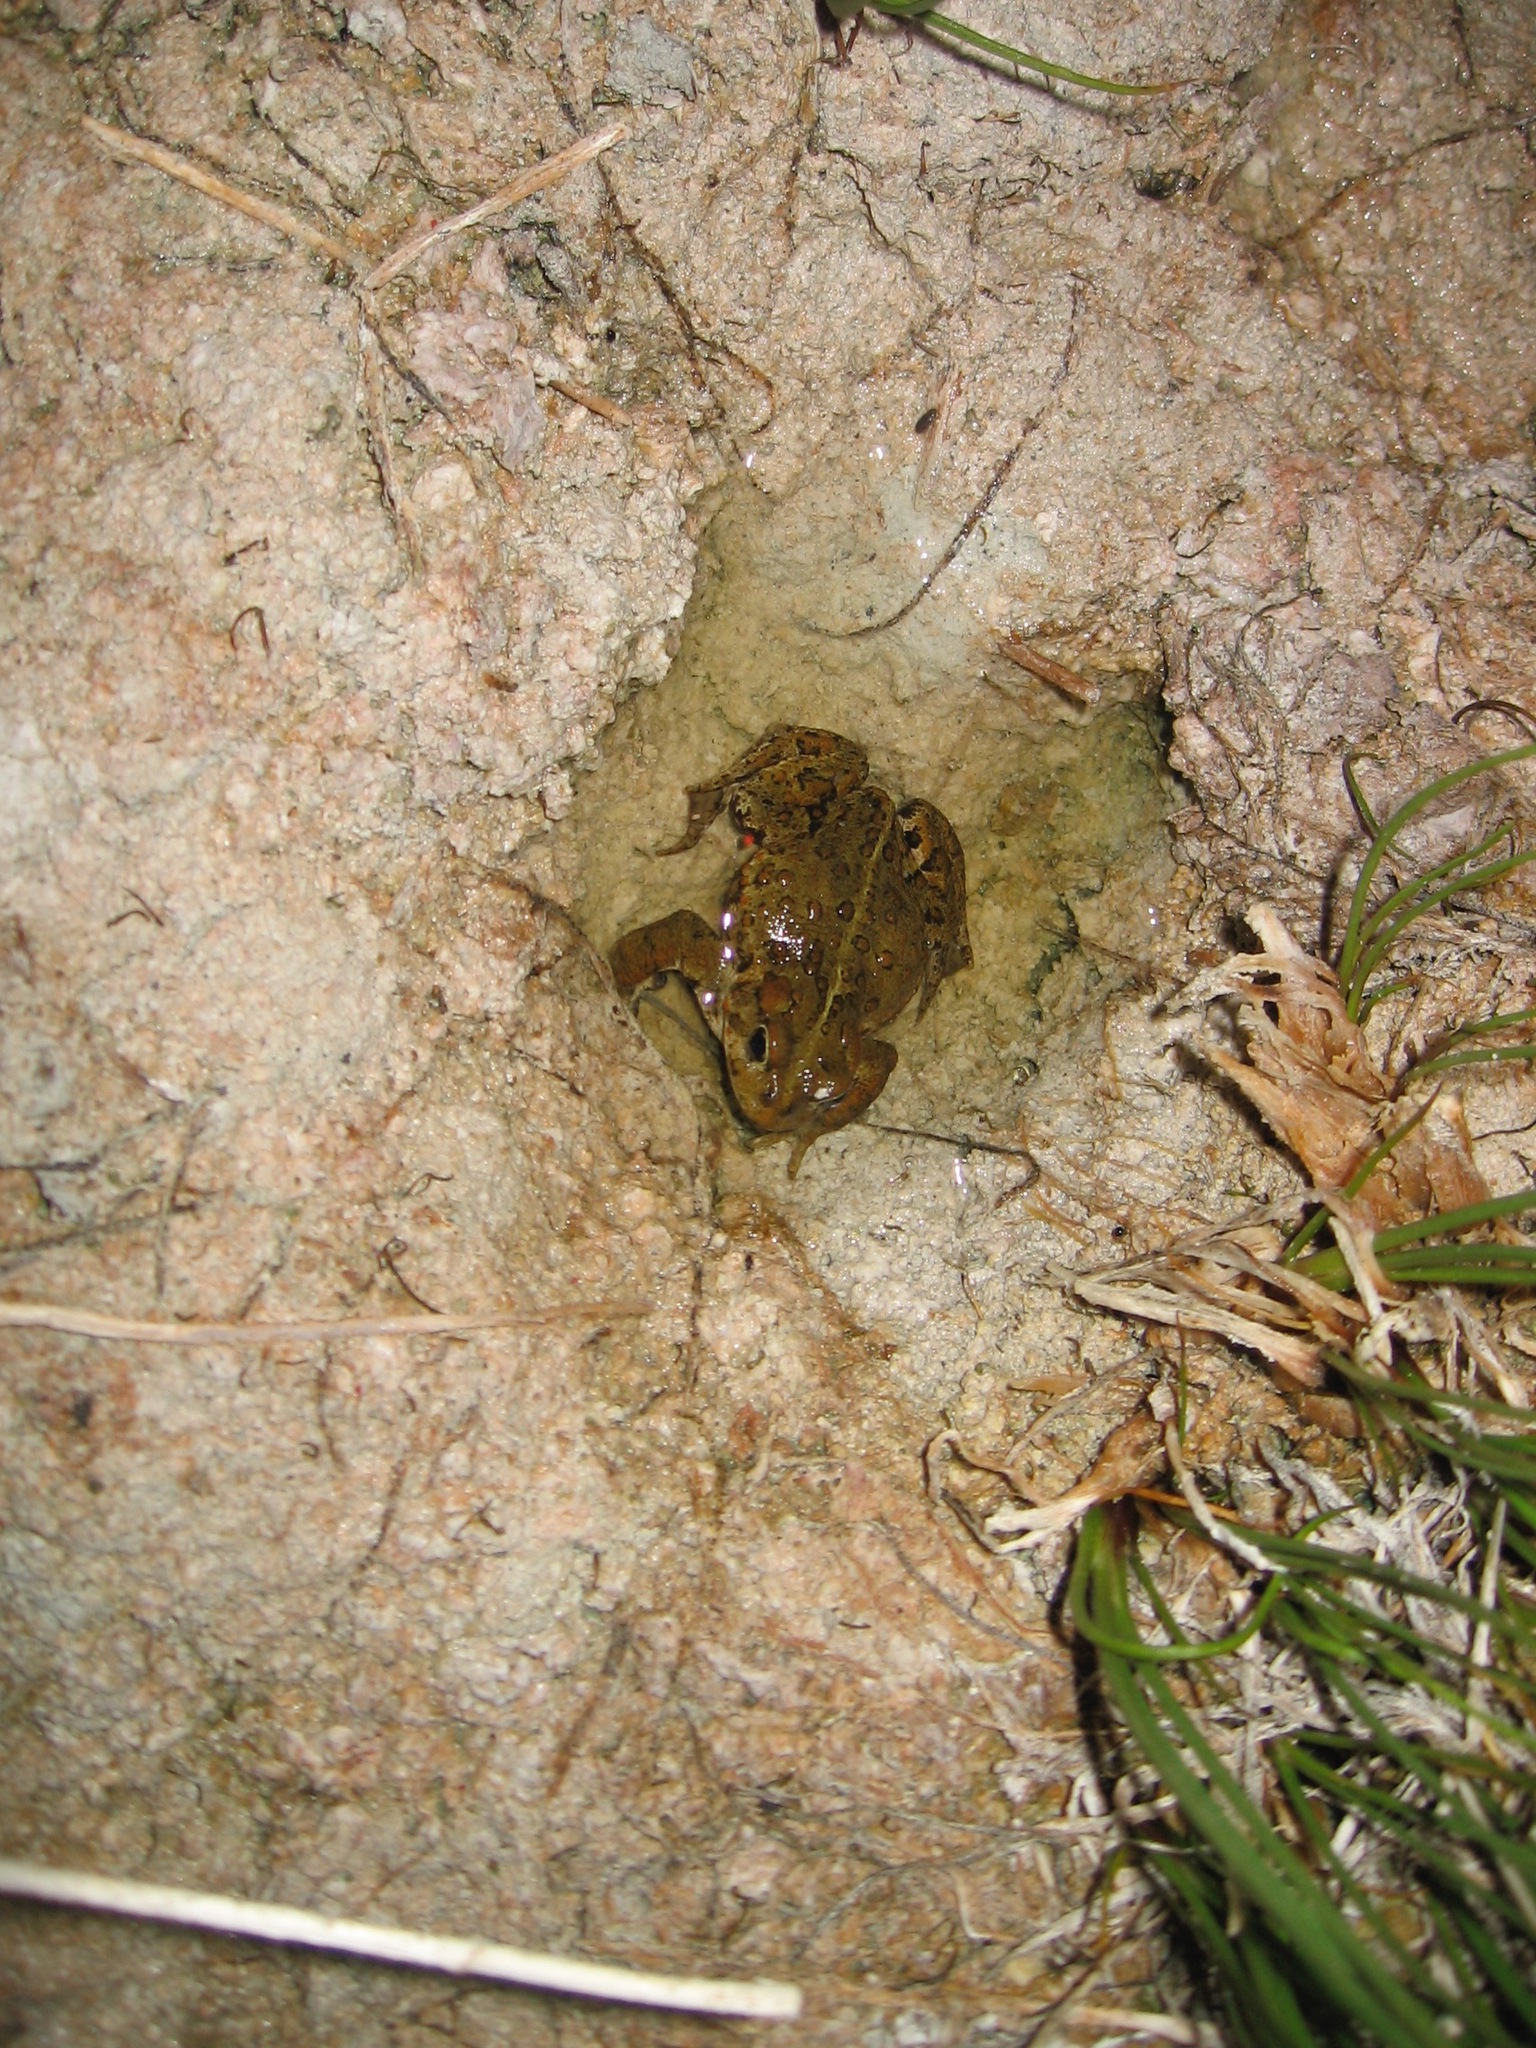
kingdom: Animalia
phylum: Chordata
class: Amphibia
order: Anura
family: Bufonidae
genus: Anaxyrus
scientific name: Anaxyrus boreas
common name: Western toad
